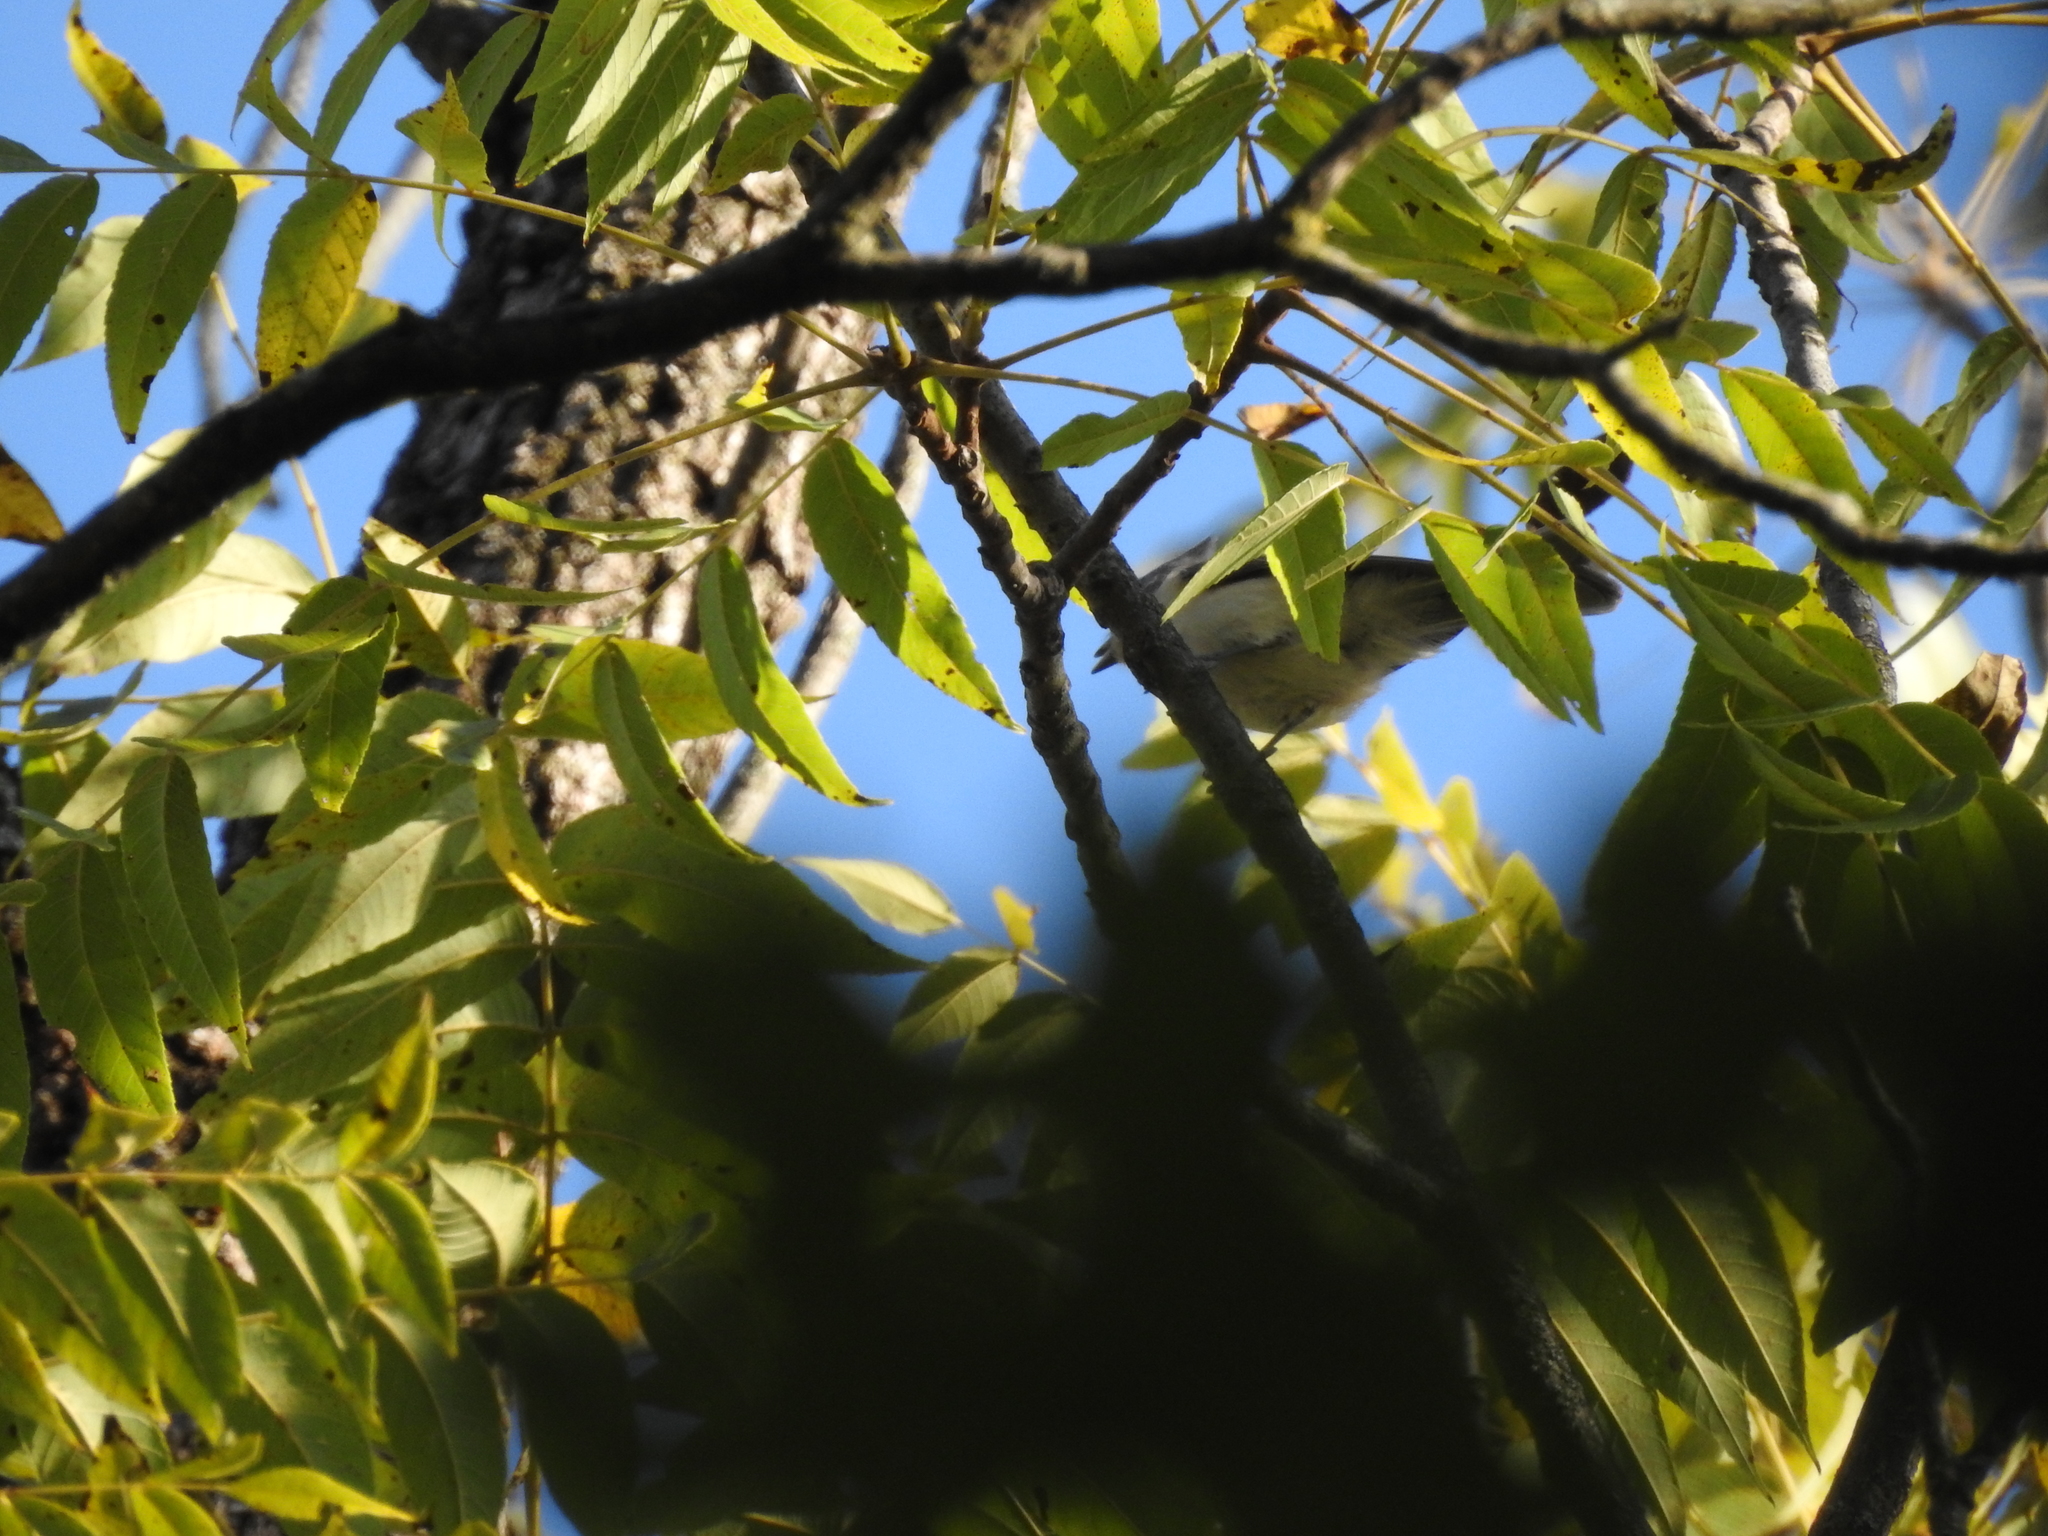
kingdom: Animalia
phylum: Chordata
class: Aves
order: Passeriformes
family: Paridae
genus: Baeolophus
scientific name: Baeolophus bicolor
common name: Tufted titmouse
